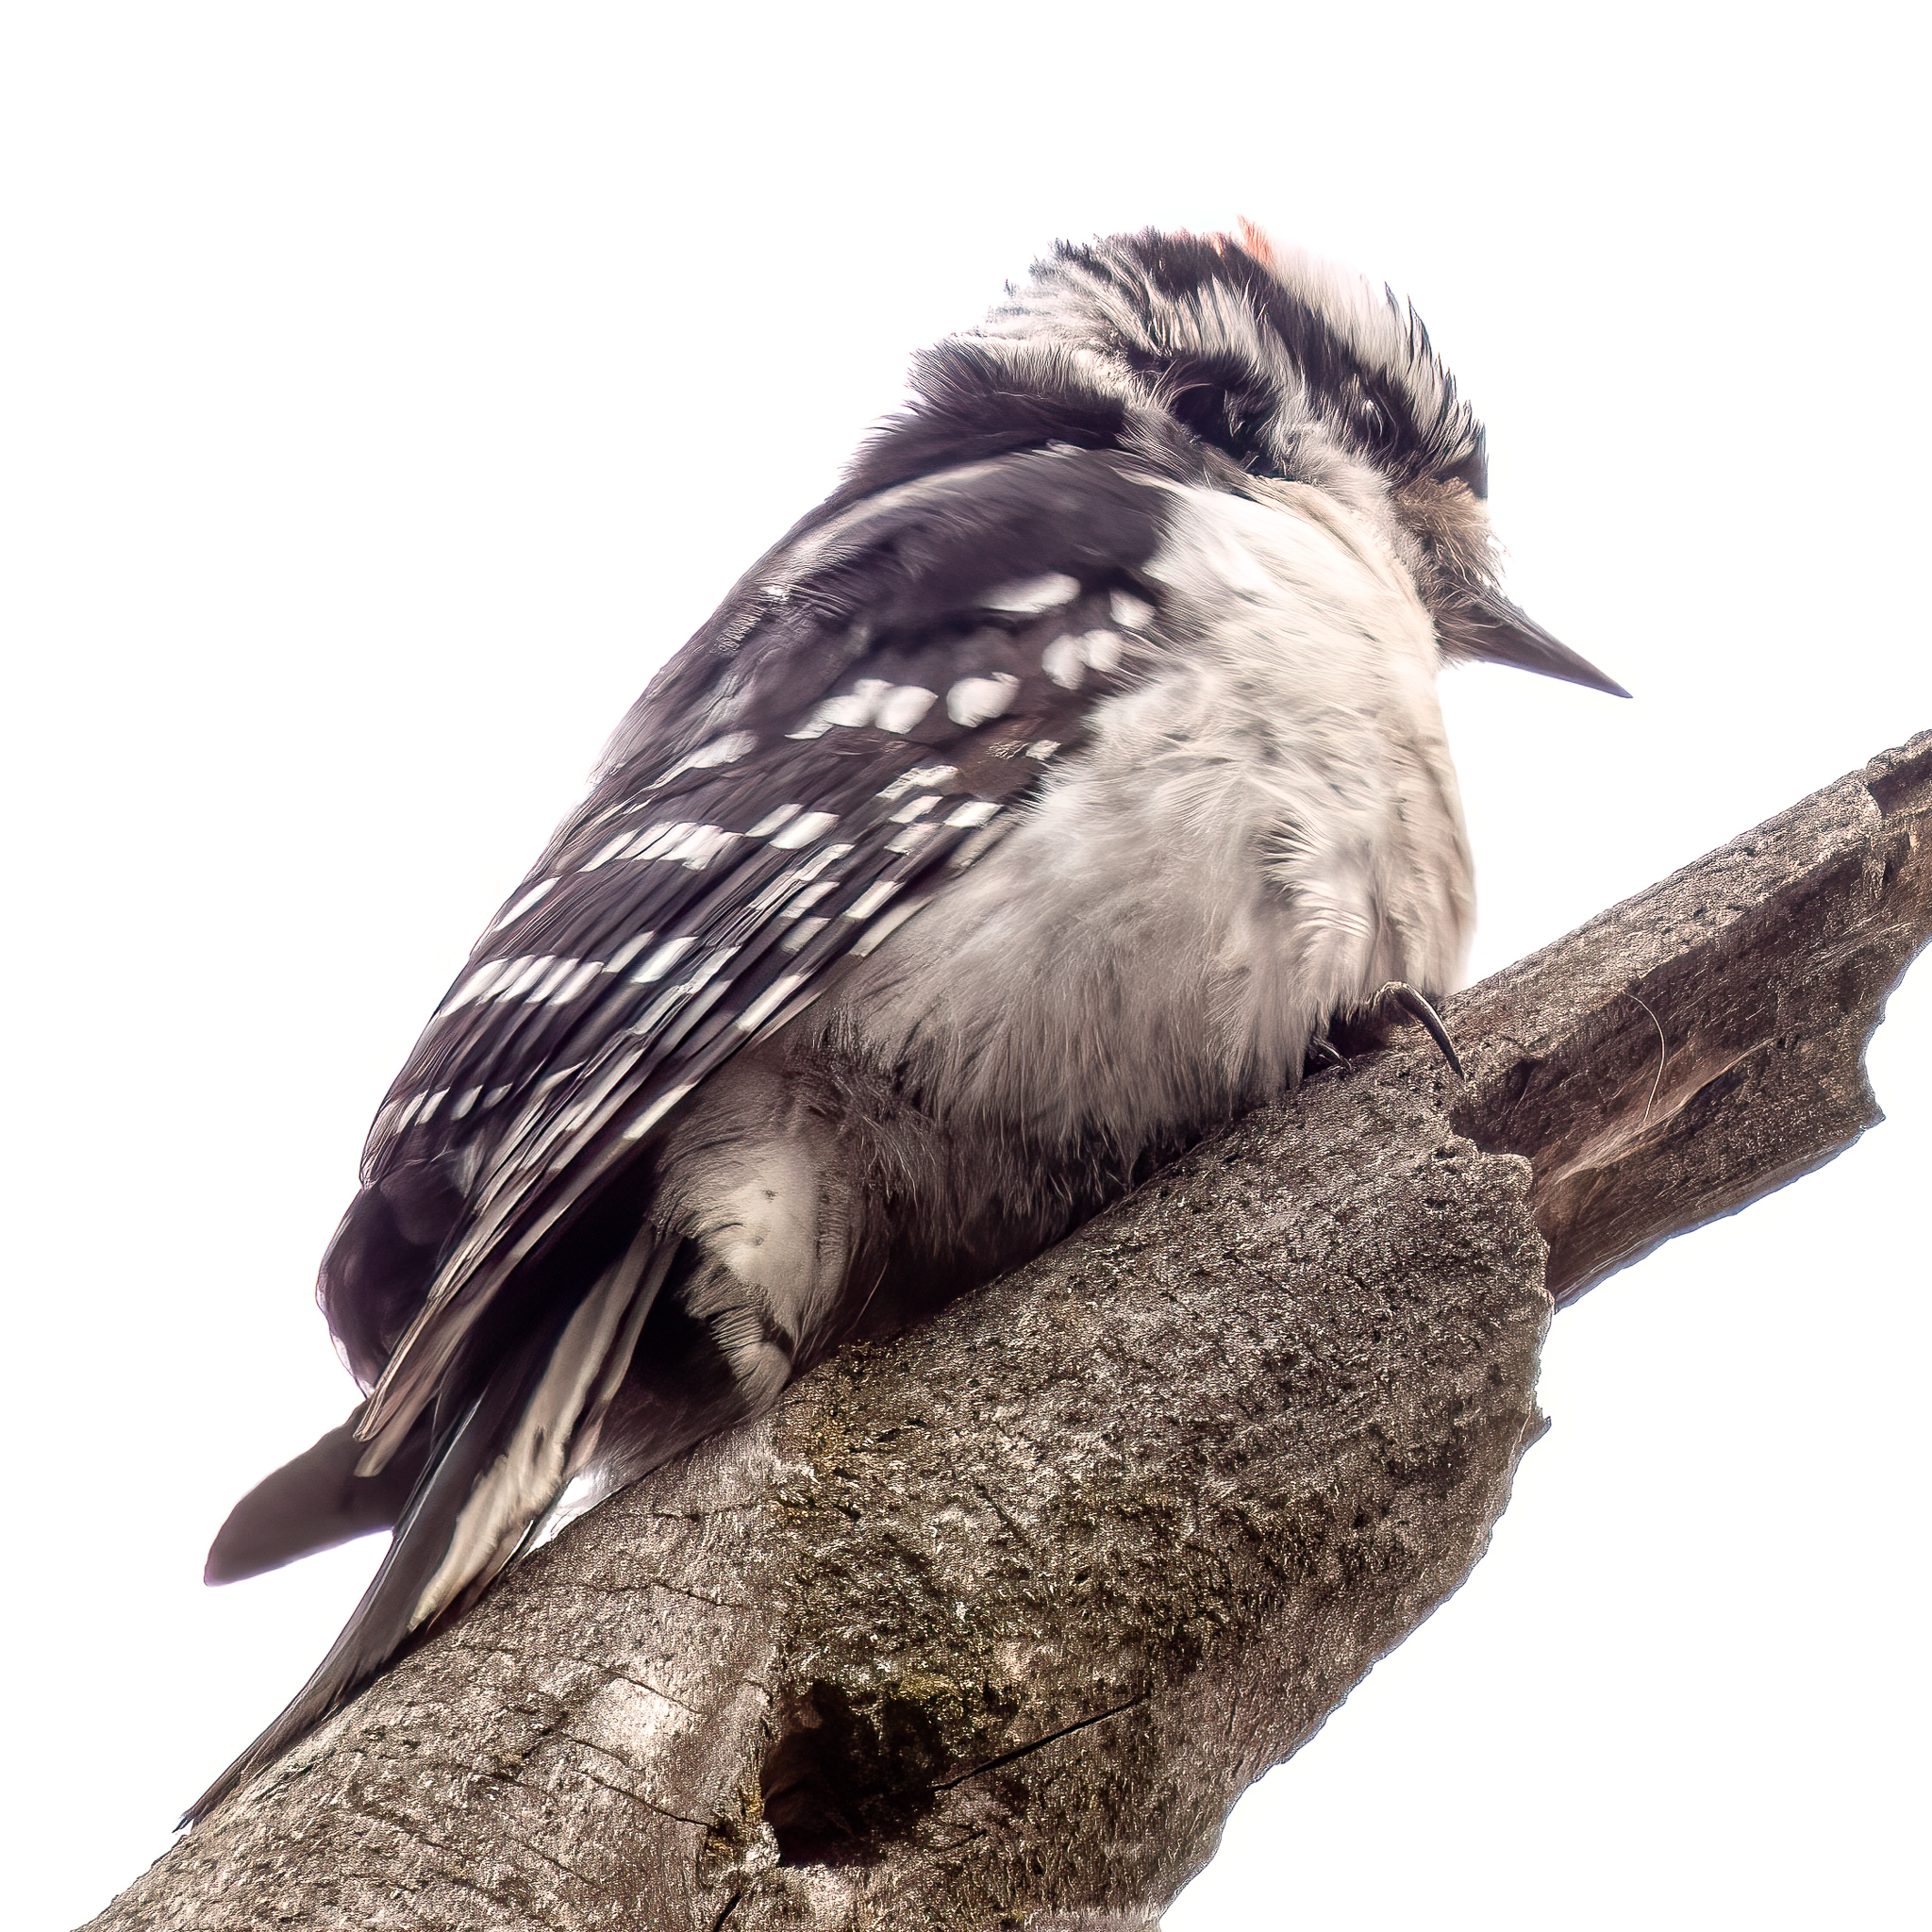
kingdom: Animalia
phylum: Chordata
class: Aves
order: Piciformes
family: Picidae
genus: Dryobates
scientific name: Dryobates pubescens
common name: Downy woodpecker
